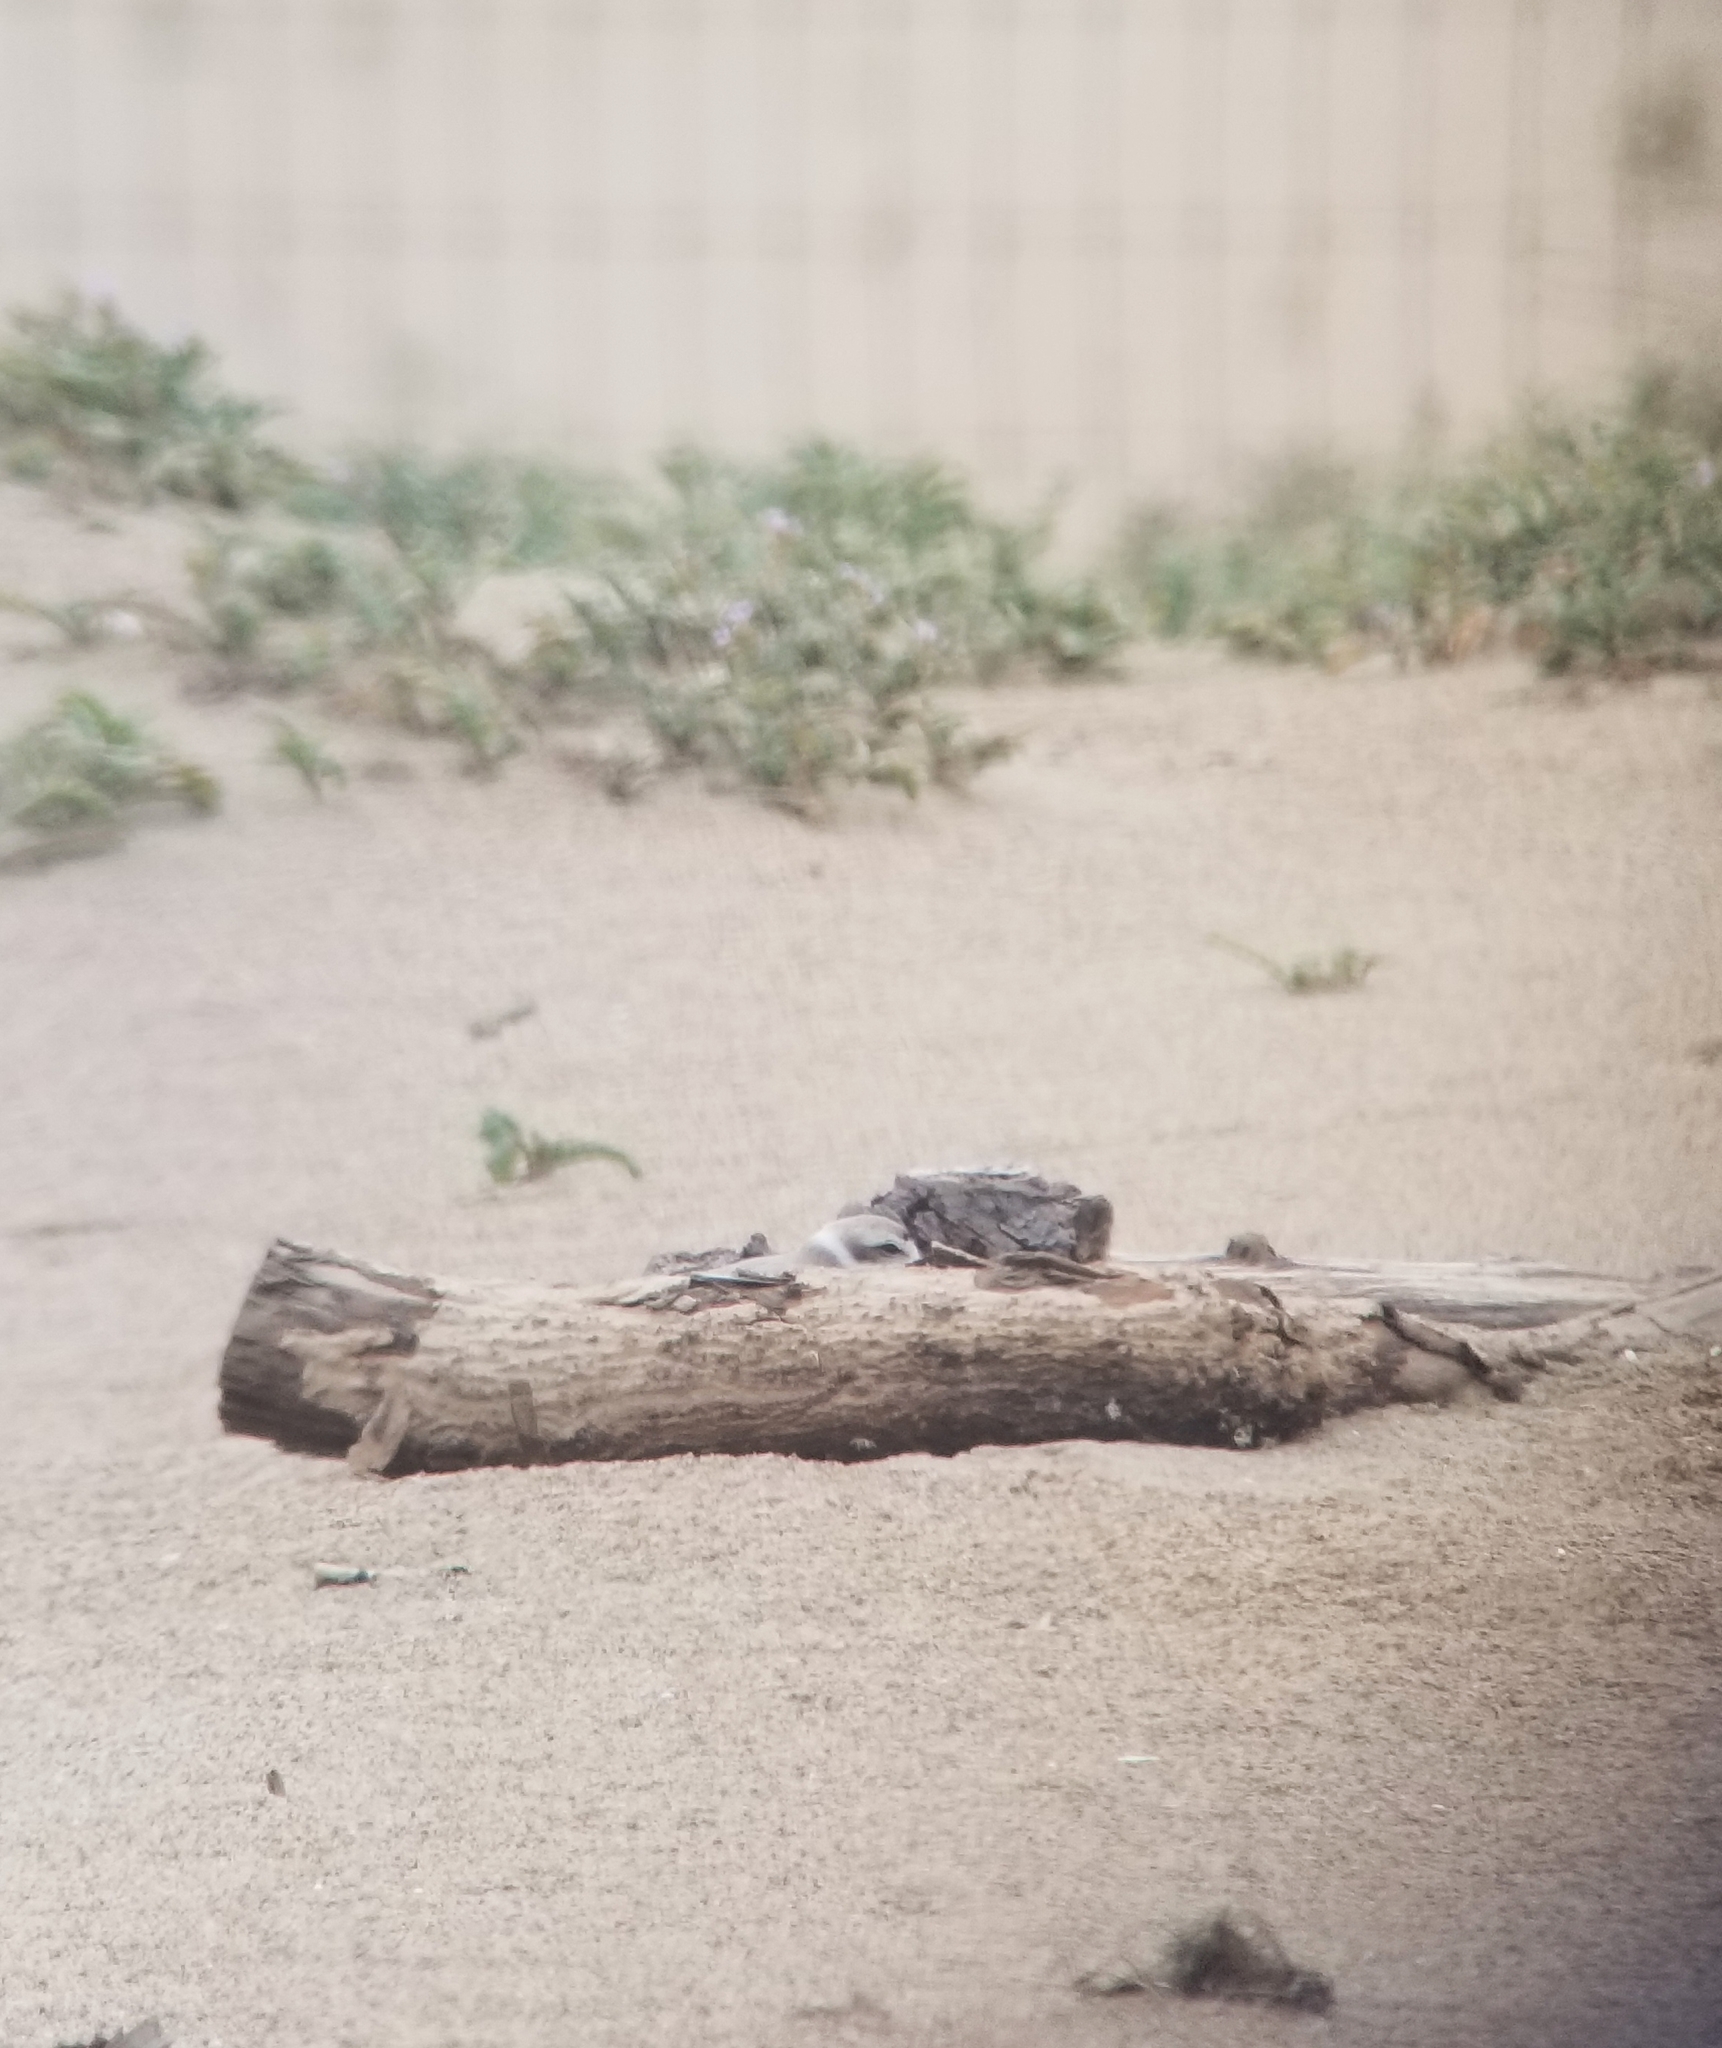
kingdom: Animalia
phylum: Chordata
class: Aves
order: Charadriiformes
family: Charadriidae
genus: Anarhynchus
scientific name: Anarhynchus
